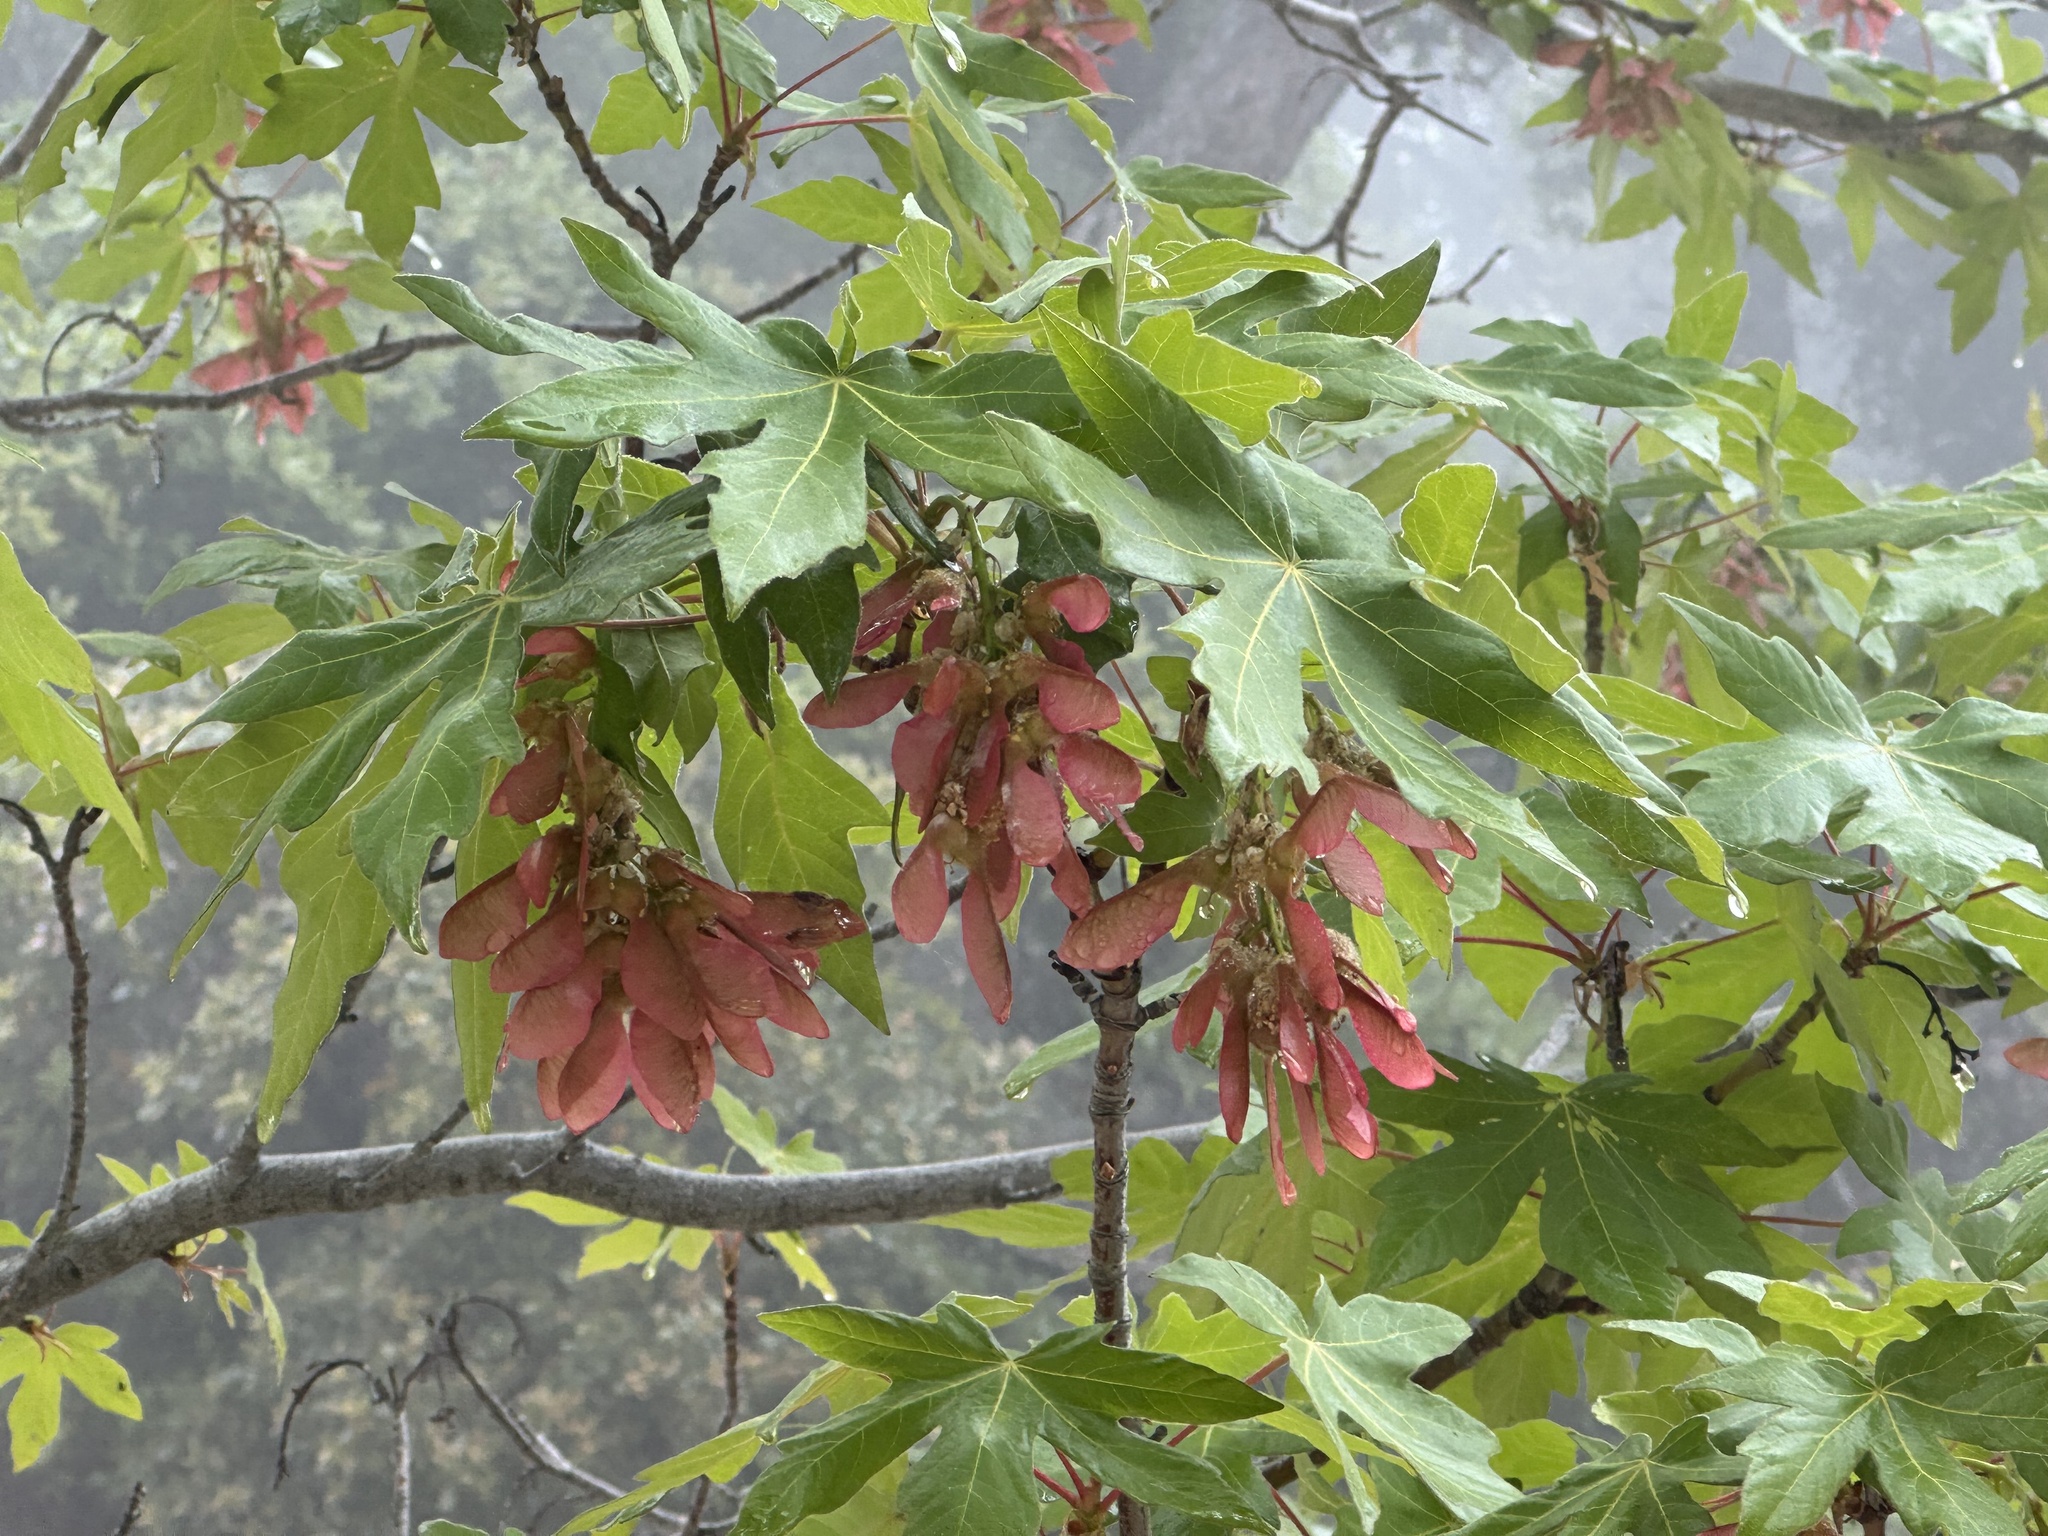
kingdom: Plantae
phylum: Tracheophyta
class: Magnoliopsida
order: Sapindales
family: Sapindaceae
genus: Acer
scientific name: Acer macrophyllum
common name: Oregon maple
